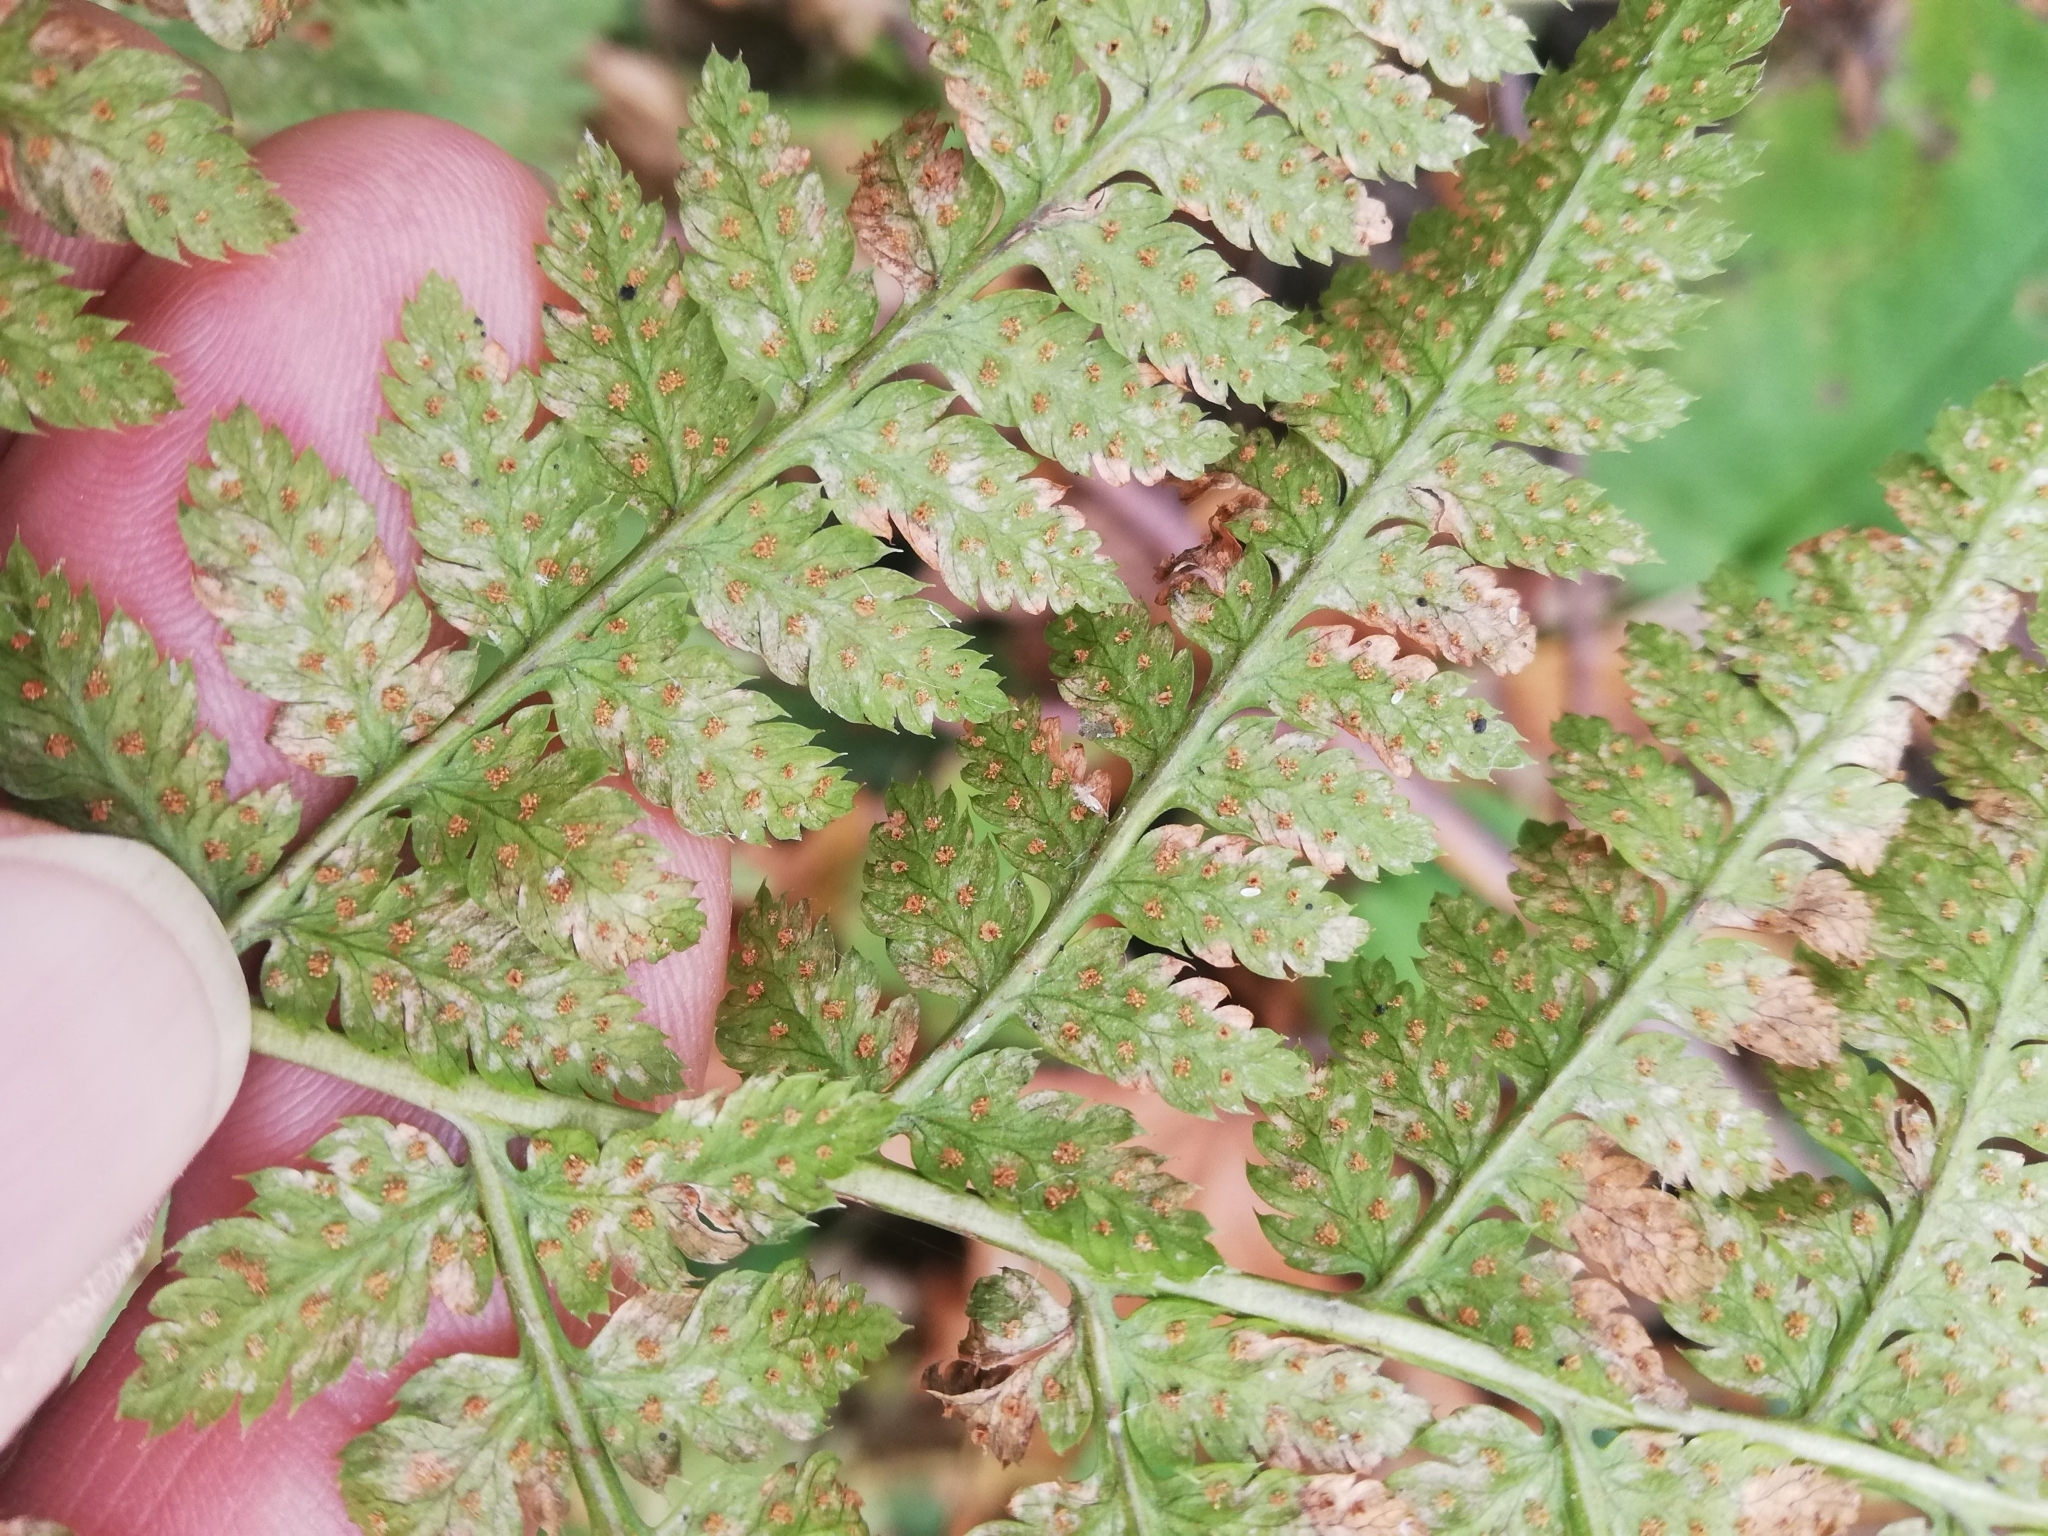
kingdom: Plantae
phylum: Tracheophyta
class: Polypodiopsida
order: Polypodiales
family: Dryopteridaceae
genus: Dryopteris
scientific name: Dryopteris carthusiana
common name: Narrow buckler-fern
